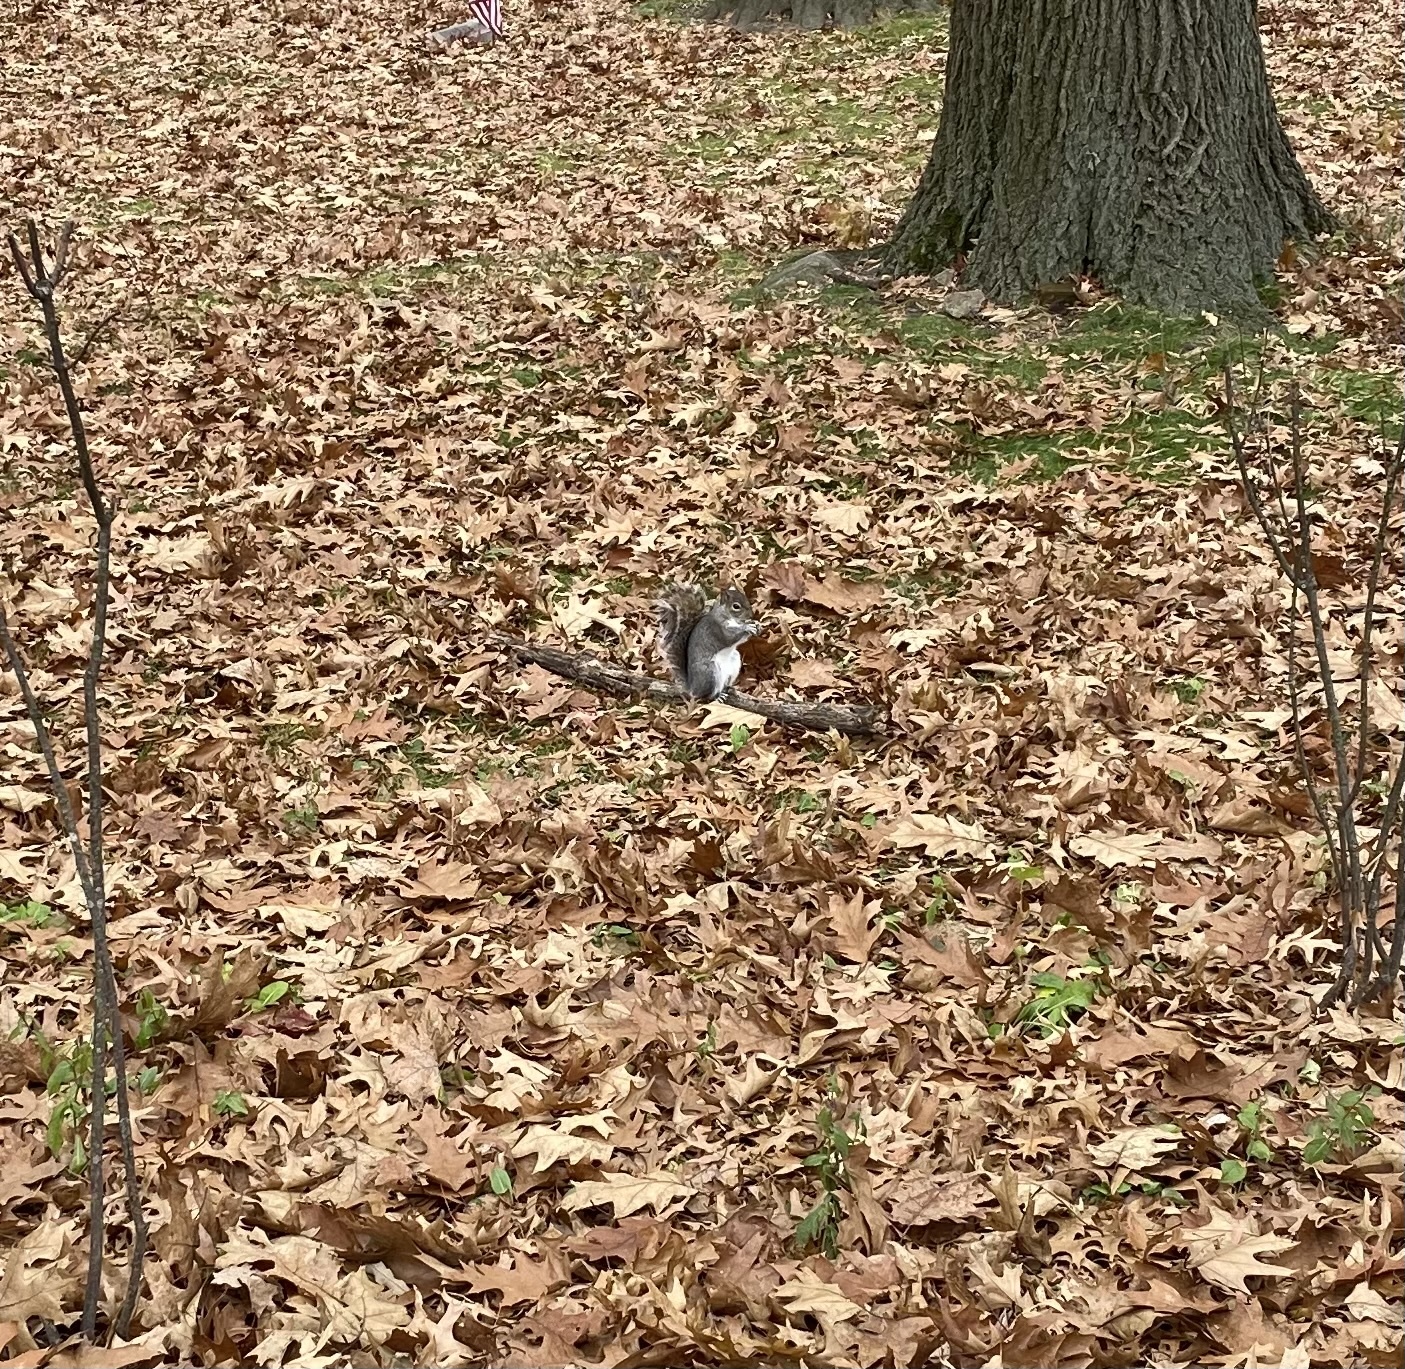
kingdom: Animalia
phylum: Chordata
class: Mammalia
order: Rodentia
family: Sciuridae
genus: Sciurus
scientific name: Sciurus carolinensis
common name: Eastern gray squirrel
